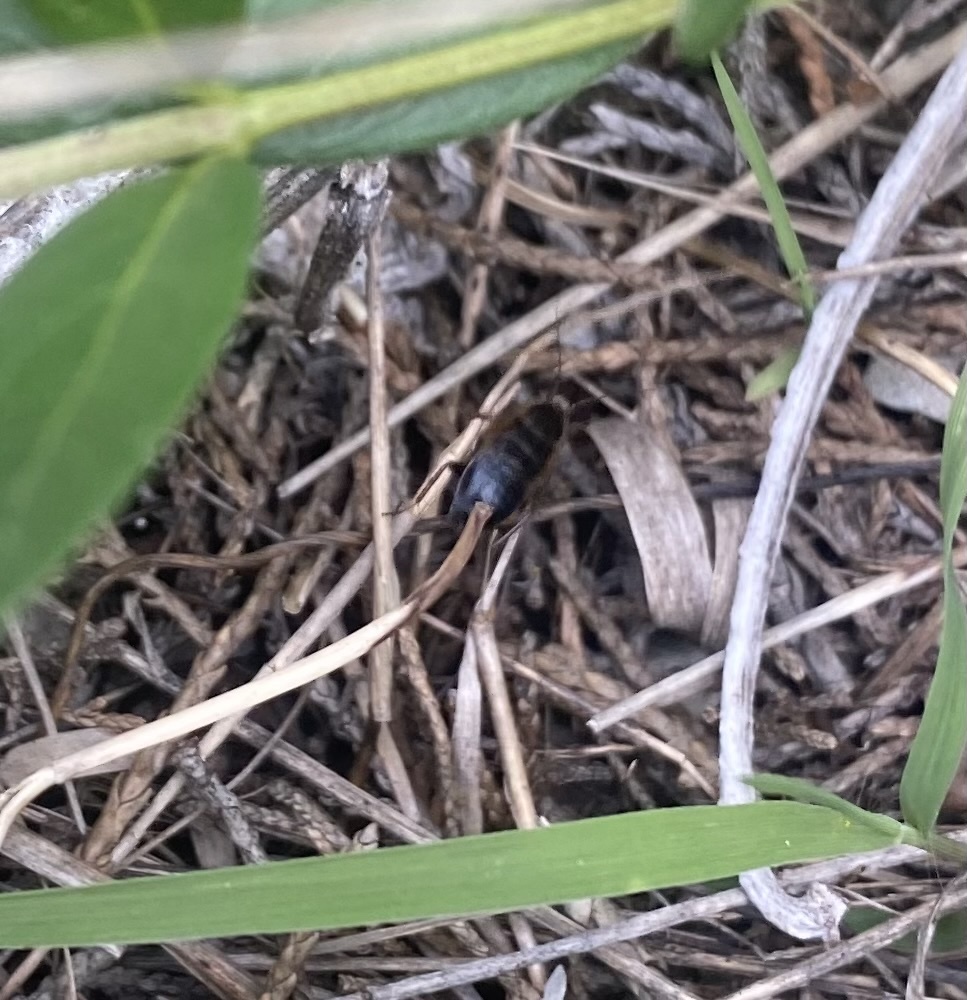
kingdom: Animalia
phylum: Arthropoda
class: Insecta
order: Blattodea
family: Ectobiidae
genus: Phyllodromica
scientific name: Phyllodromica polita
